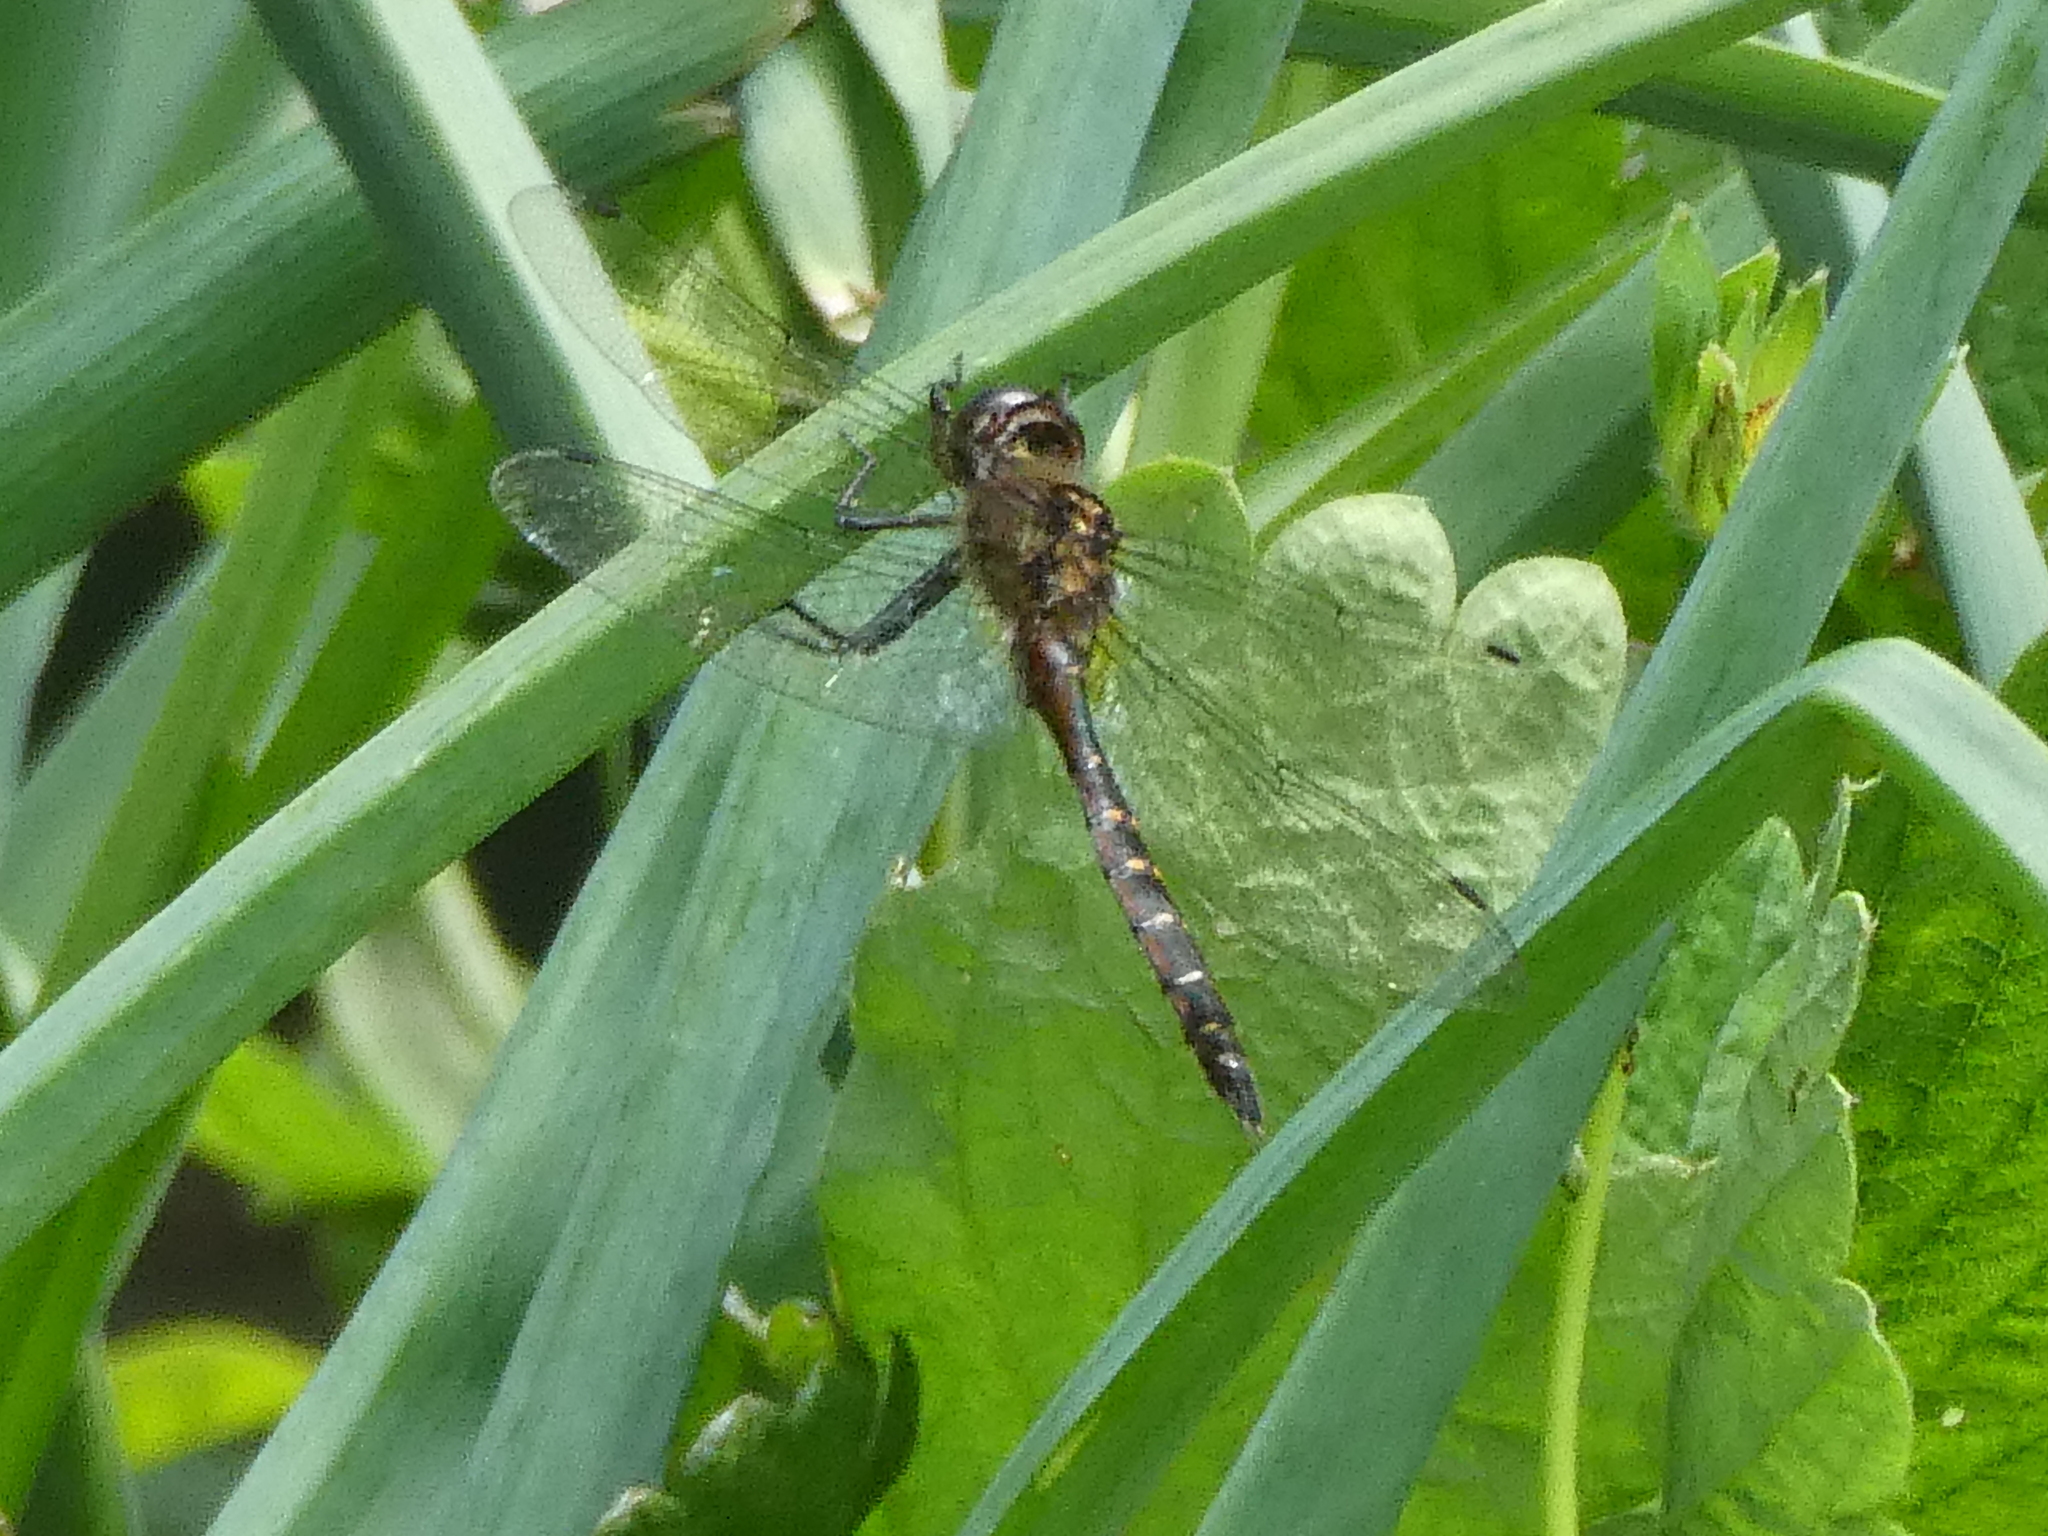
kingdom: Animalia
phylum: Arthropoda
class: Insecta
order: Odonata
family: Corduliidae
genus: Procordulia
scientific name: Procordulia smithii
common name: Ranger dragonfly
